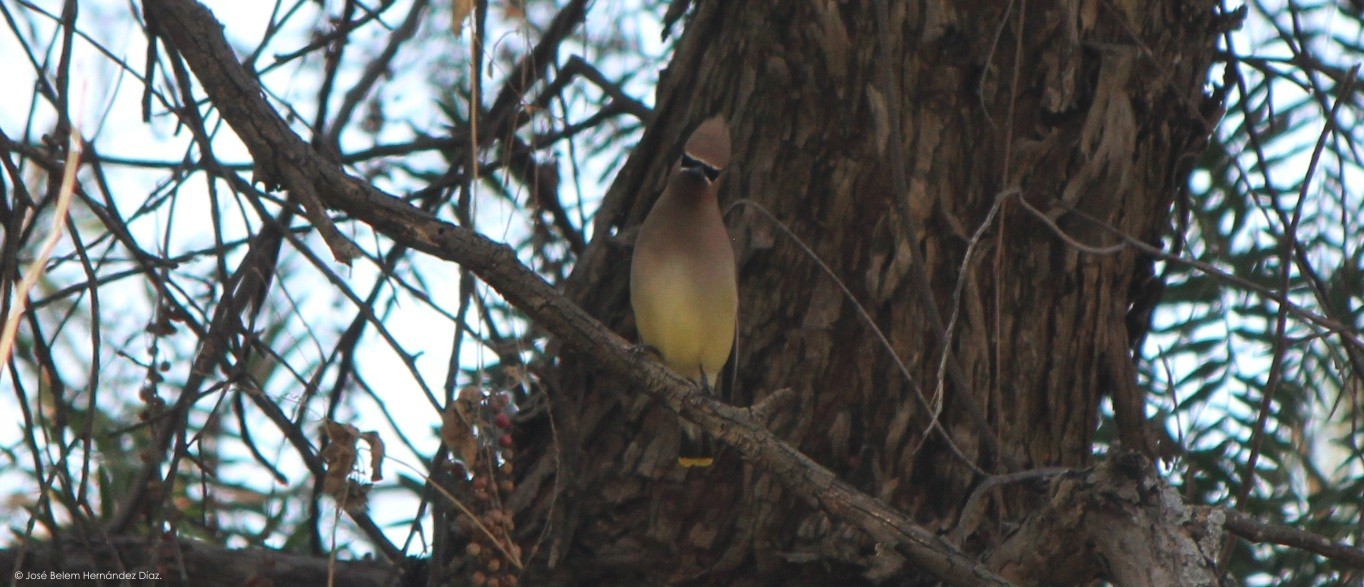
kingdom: Animalia
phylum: Chordata
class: Aves
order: Passeriformes
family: Bombycillidae
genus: Bombycilla
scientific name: Bombycilla cedrorum
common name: Cedar waxwing
